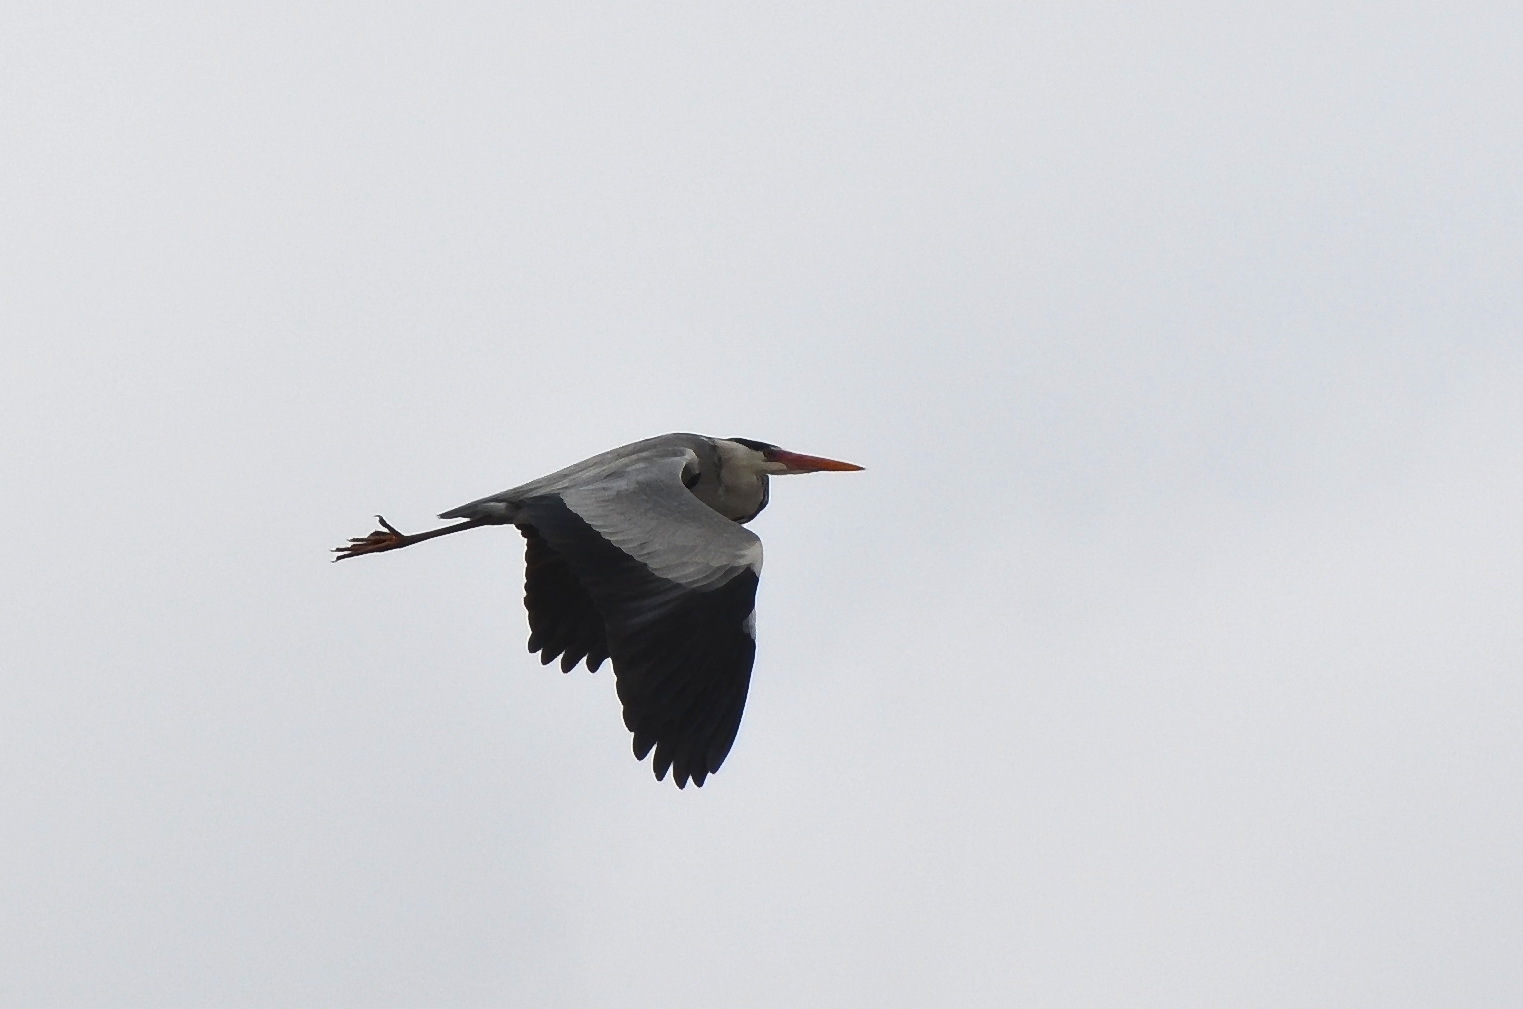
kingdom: Animalia
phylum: Chordata
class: Aves
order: Pelecaniformes
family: Ardeidae
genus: Ardea
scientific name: Ardea cinerea
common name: Grey heron
